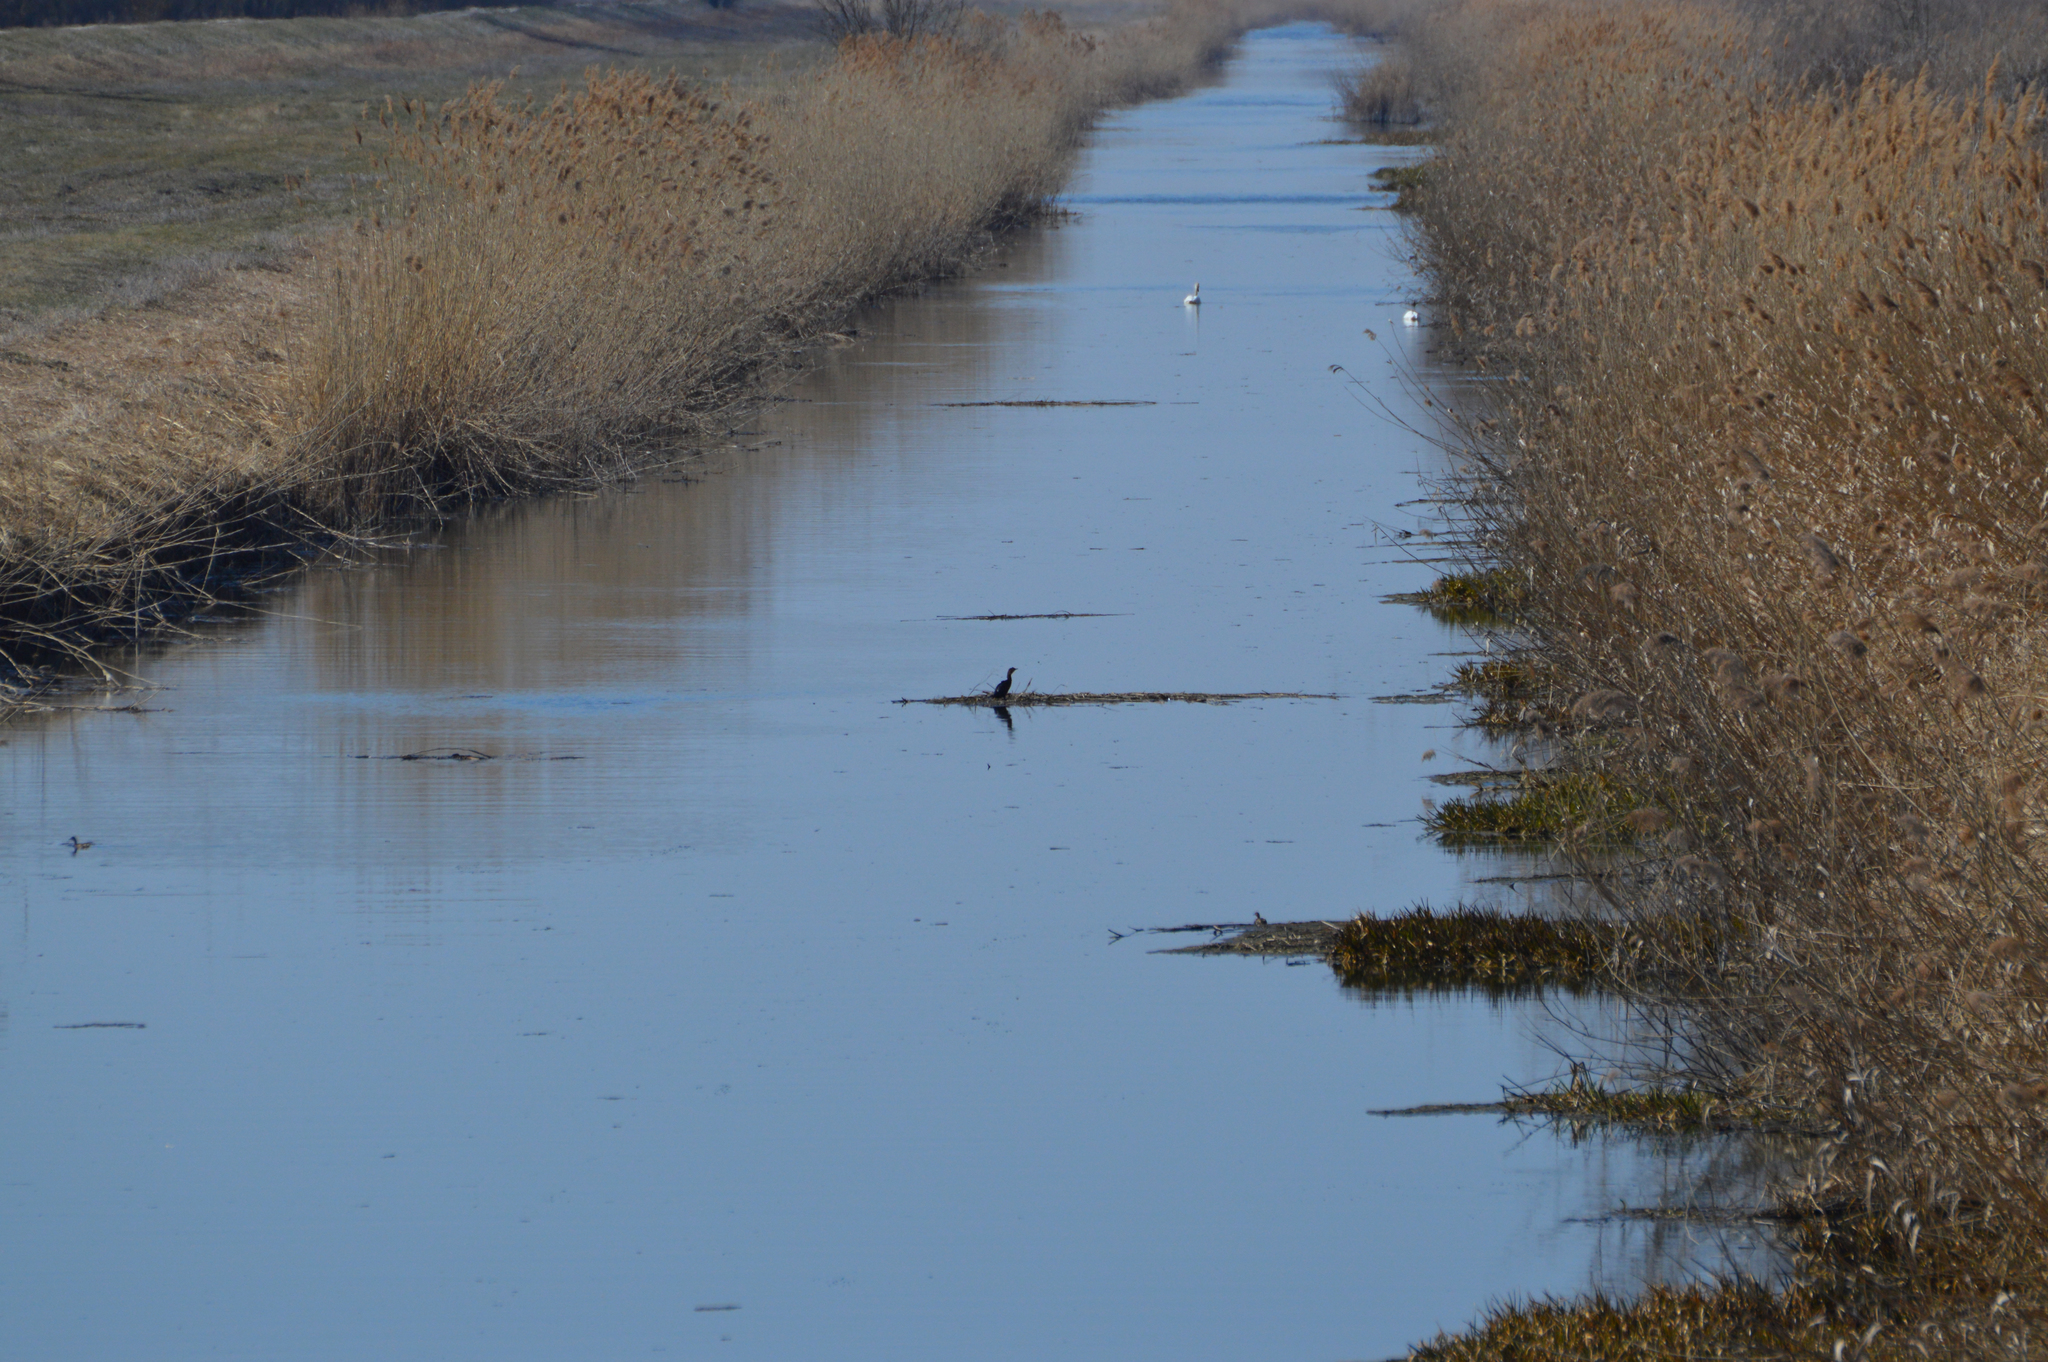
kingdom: Animalia
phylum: Chordata
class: Aves
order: Suliformes
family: Phalacrocoracidae
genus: Microcarbo
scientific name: Microcarbo pygmaeus
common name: Pygmy cormorant
